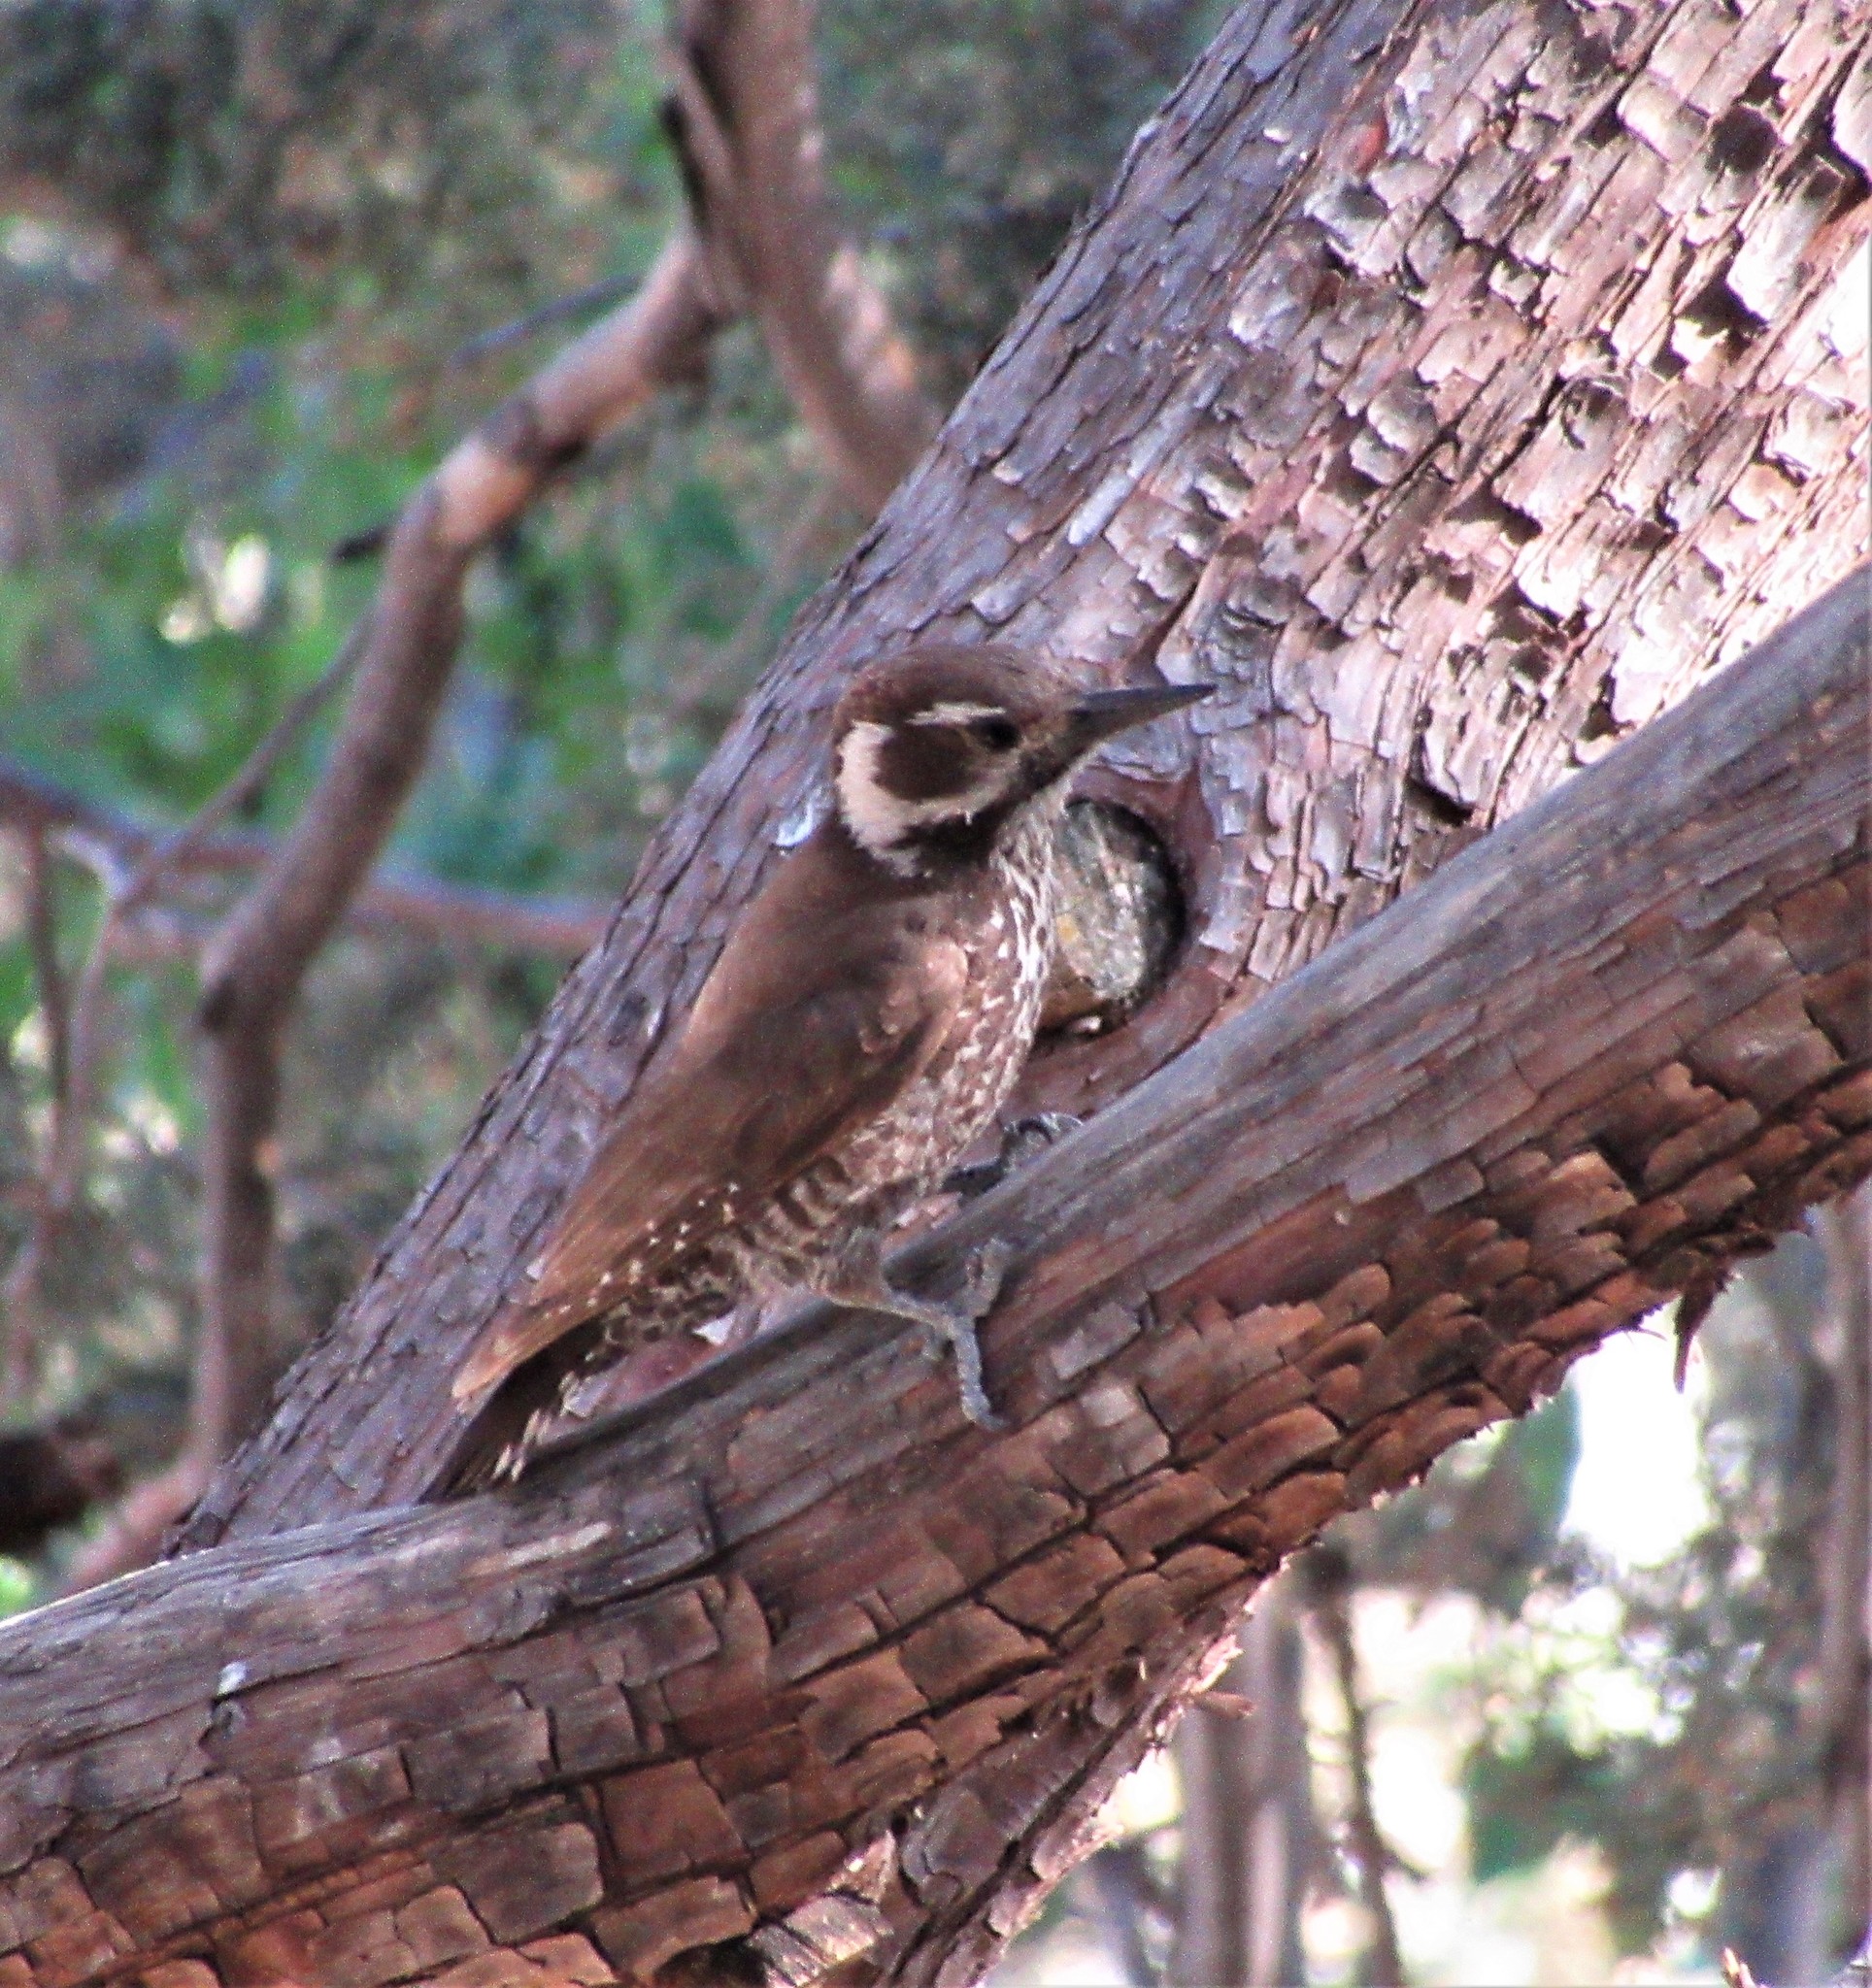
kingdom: Animalia
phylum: Chordata
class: Aves
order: Piciformes
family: Picidae
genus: Leuconotopicus
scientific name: Leuconotopicus arizonae
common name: Arizona woodpecker
